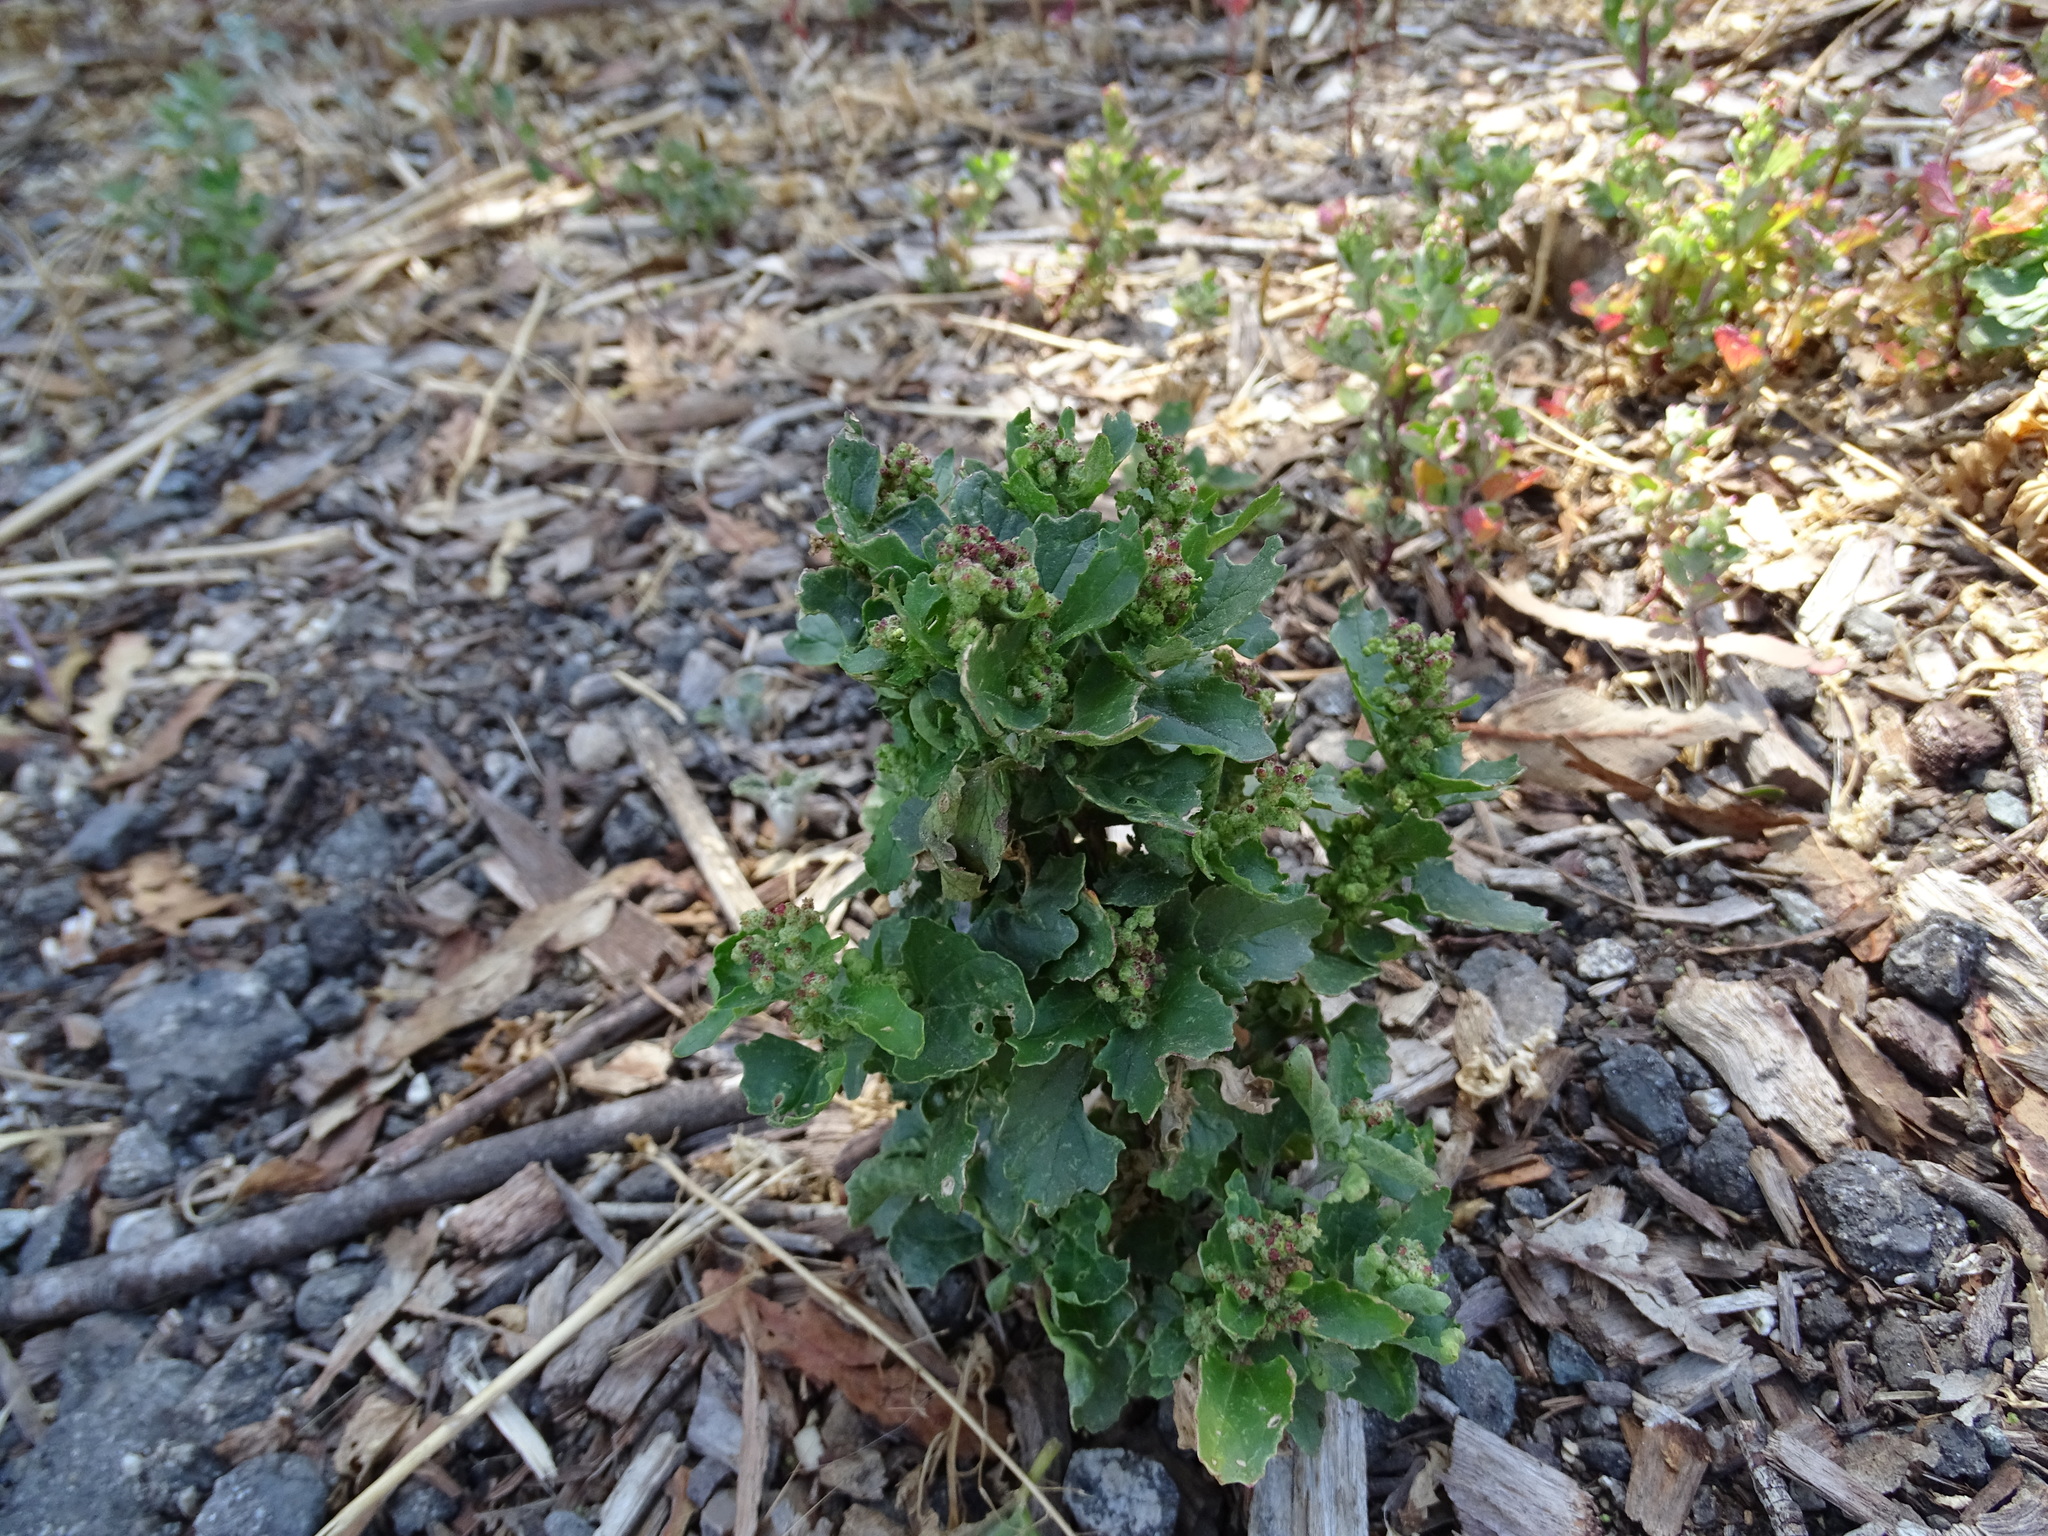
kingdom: Plantae
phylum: Tracheophyta
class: Magnoliopsida
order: Caryophyllales
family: Amaranthaceae
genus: Chenopodiastrum
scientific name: Chenopodiastrum murale
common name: Sowbane
